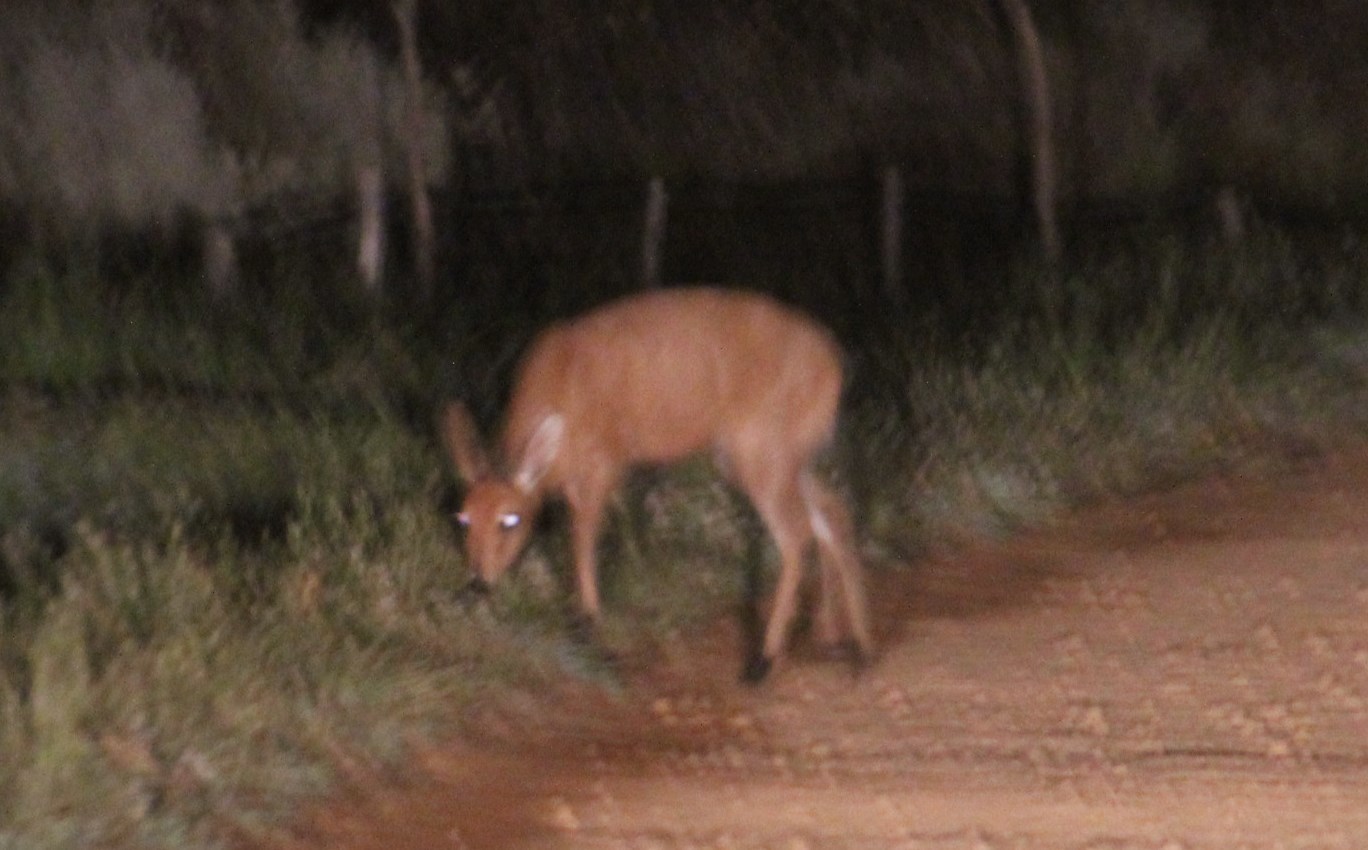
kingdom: Animalia
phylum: Chordata
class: Mammalia
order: Artiodactyla
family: Bovidae
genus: Sylvicapra
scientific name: Sylvicapra grimmia
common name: Bush duiker
